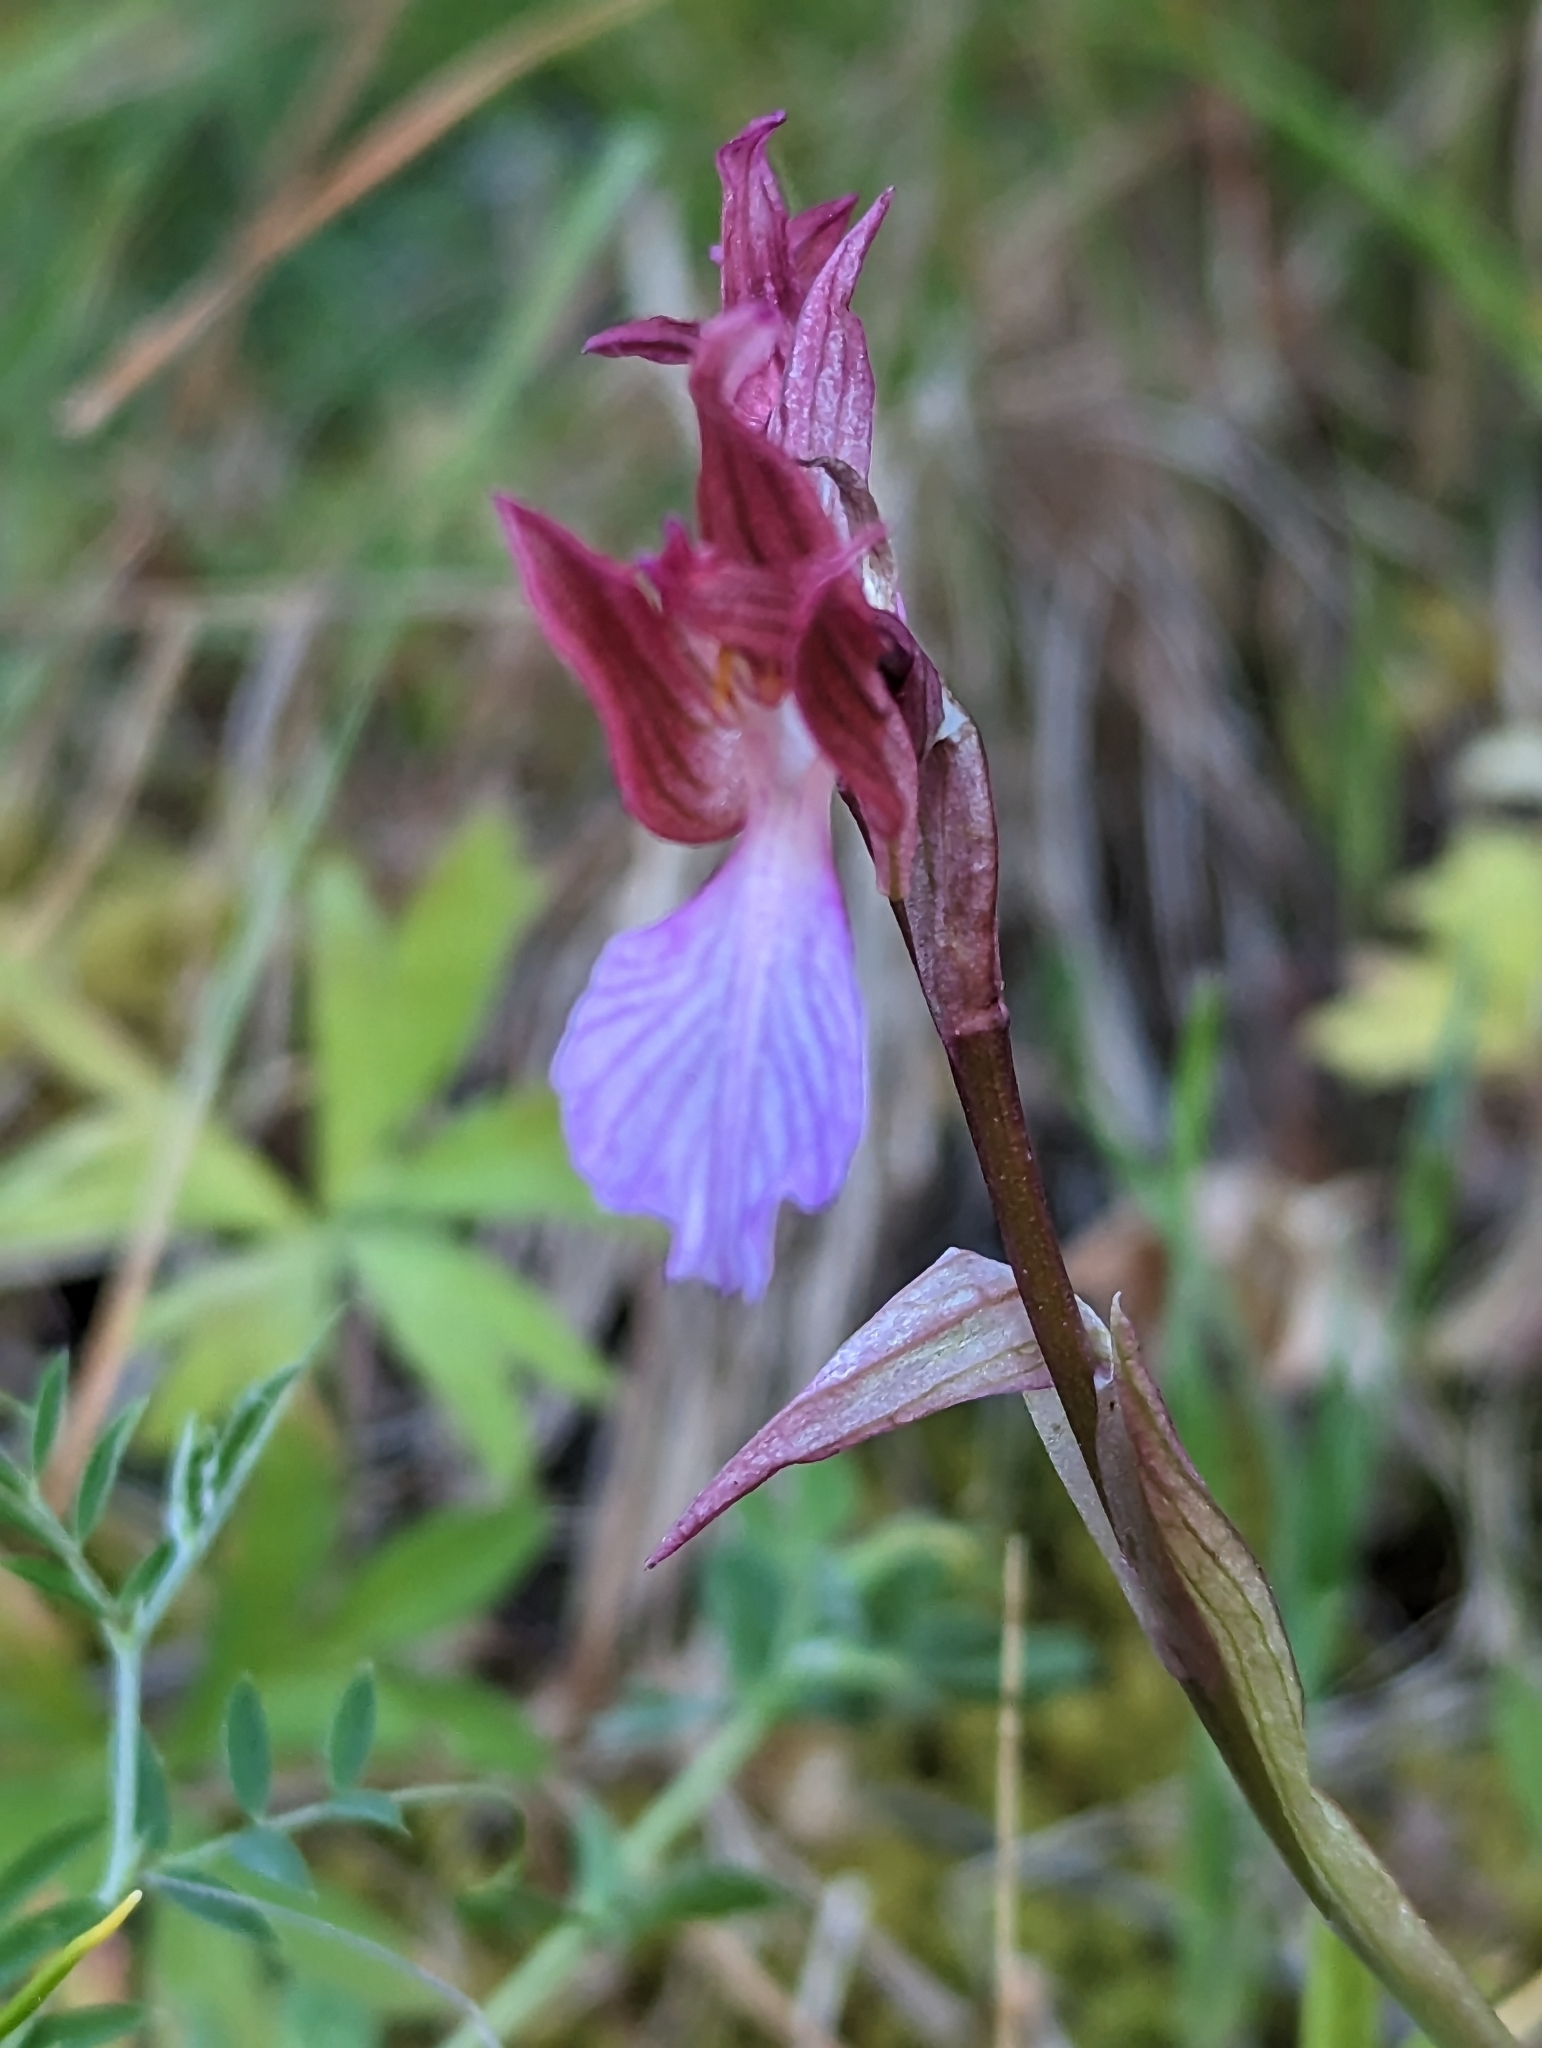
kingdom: Plantae
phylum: Tracheophyta
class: Liliopsida
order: Asparagales
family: Orchidaceae
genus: Anacamptis
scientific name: Anacamptis papilionacea
